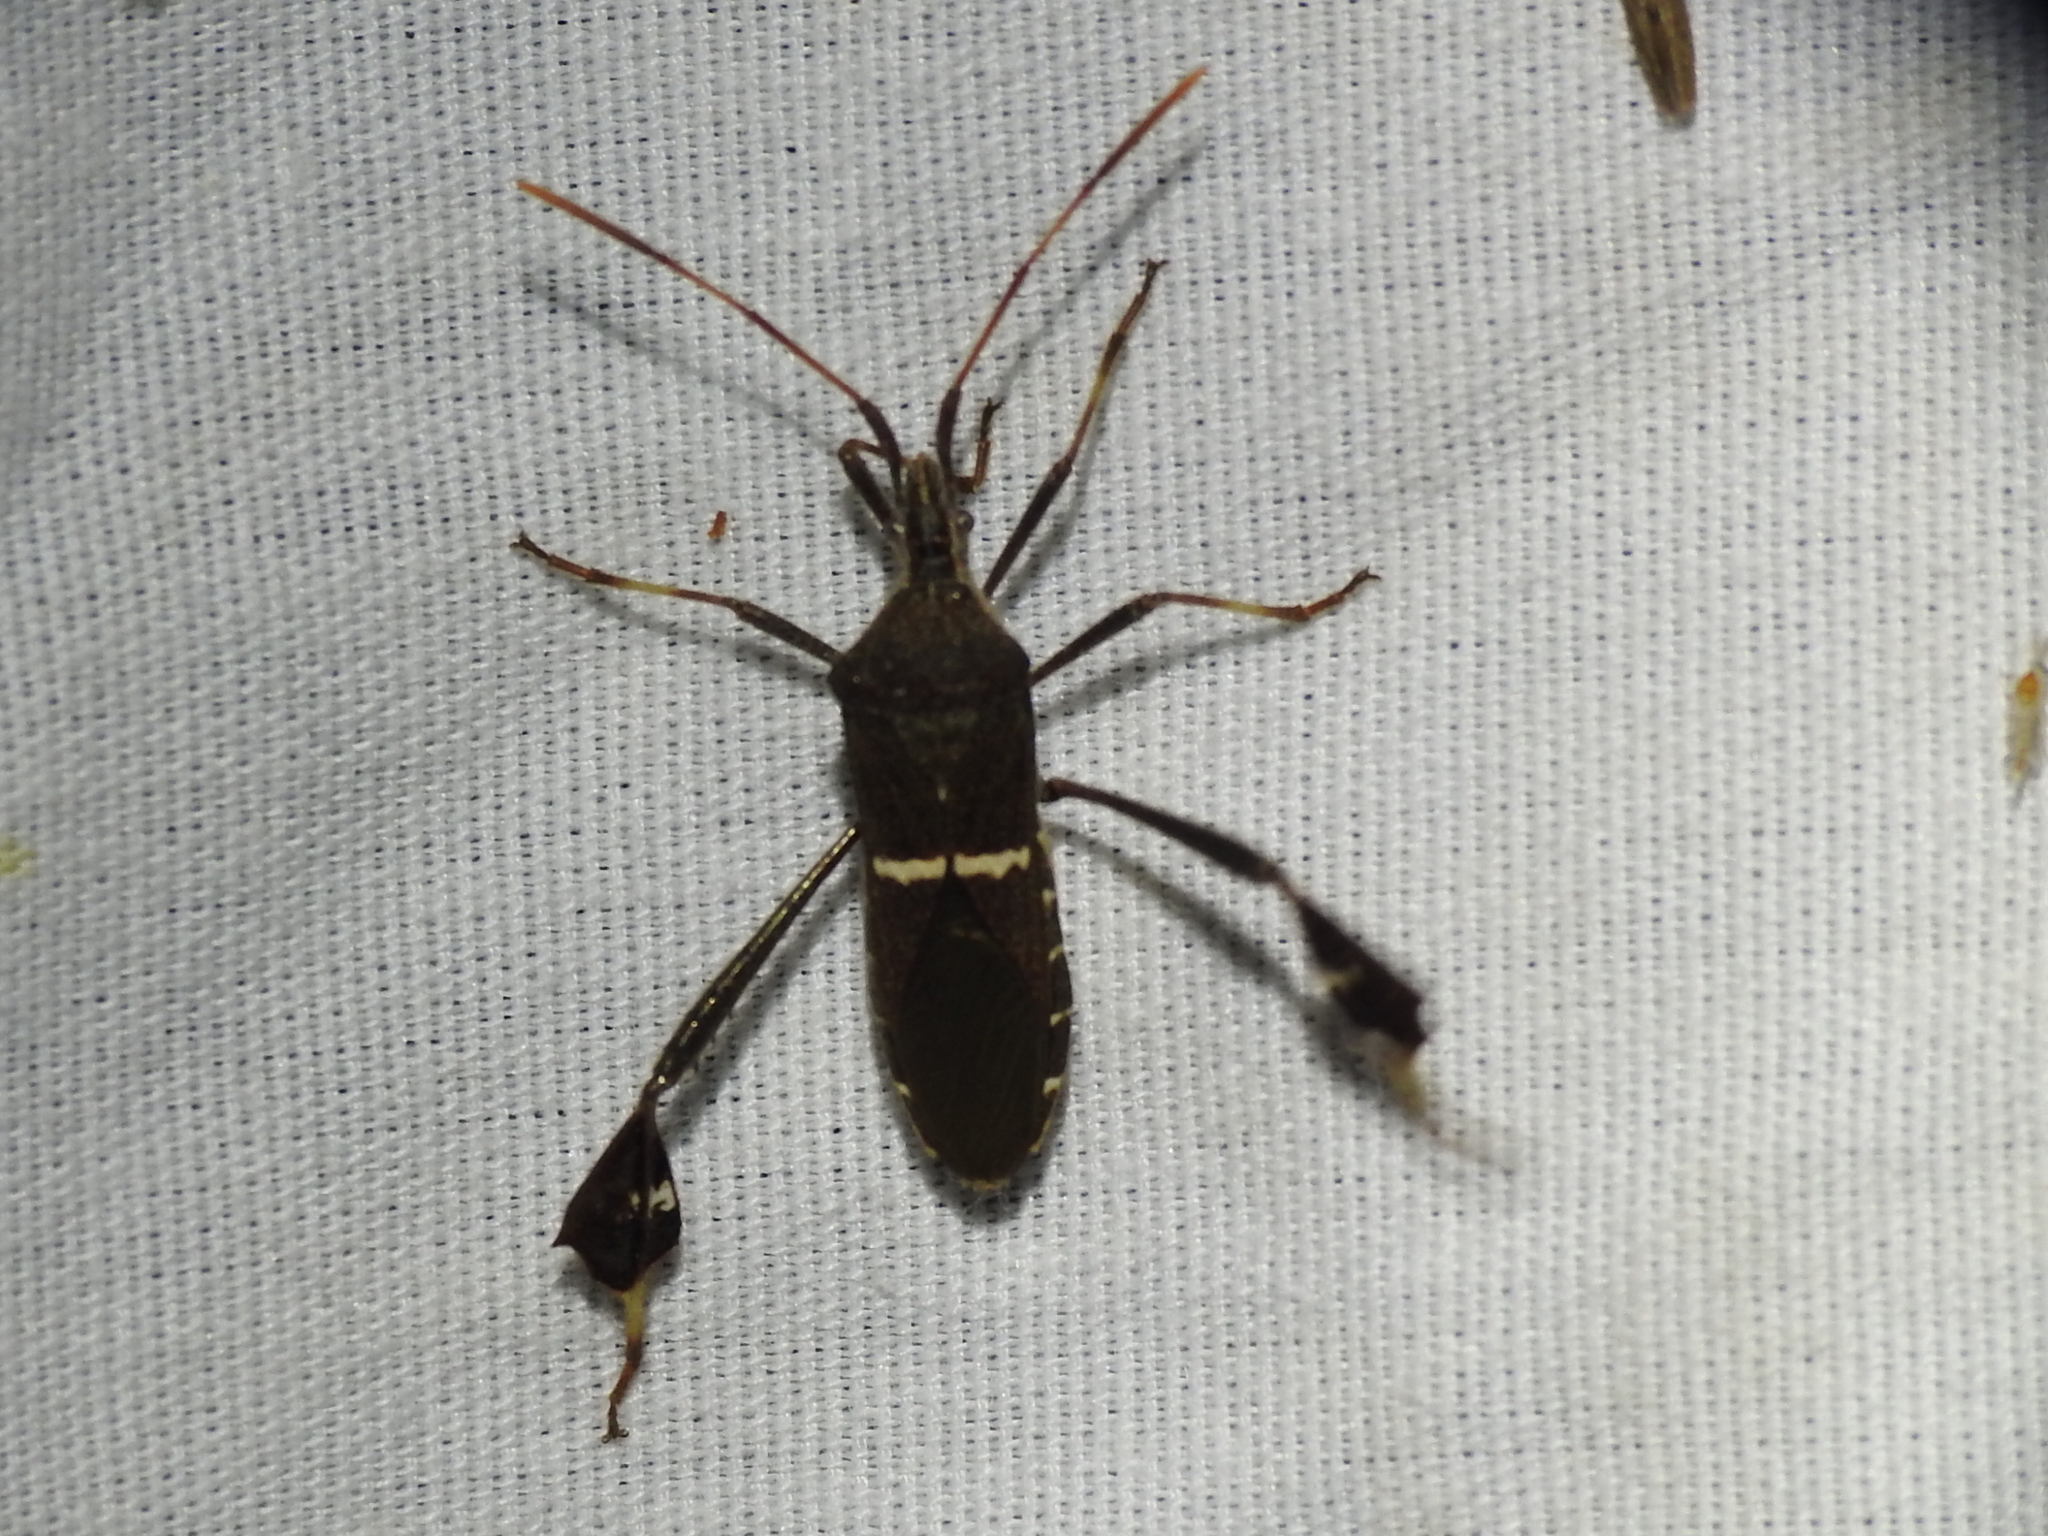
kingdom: Animalia
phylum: Arthropoda
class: Insecta
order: Hemiptera
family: Coreidae
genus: Leptoglossus
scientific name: Leptoglossus phyllopus
